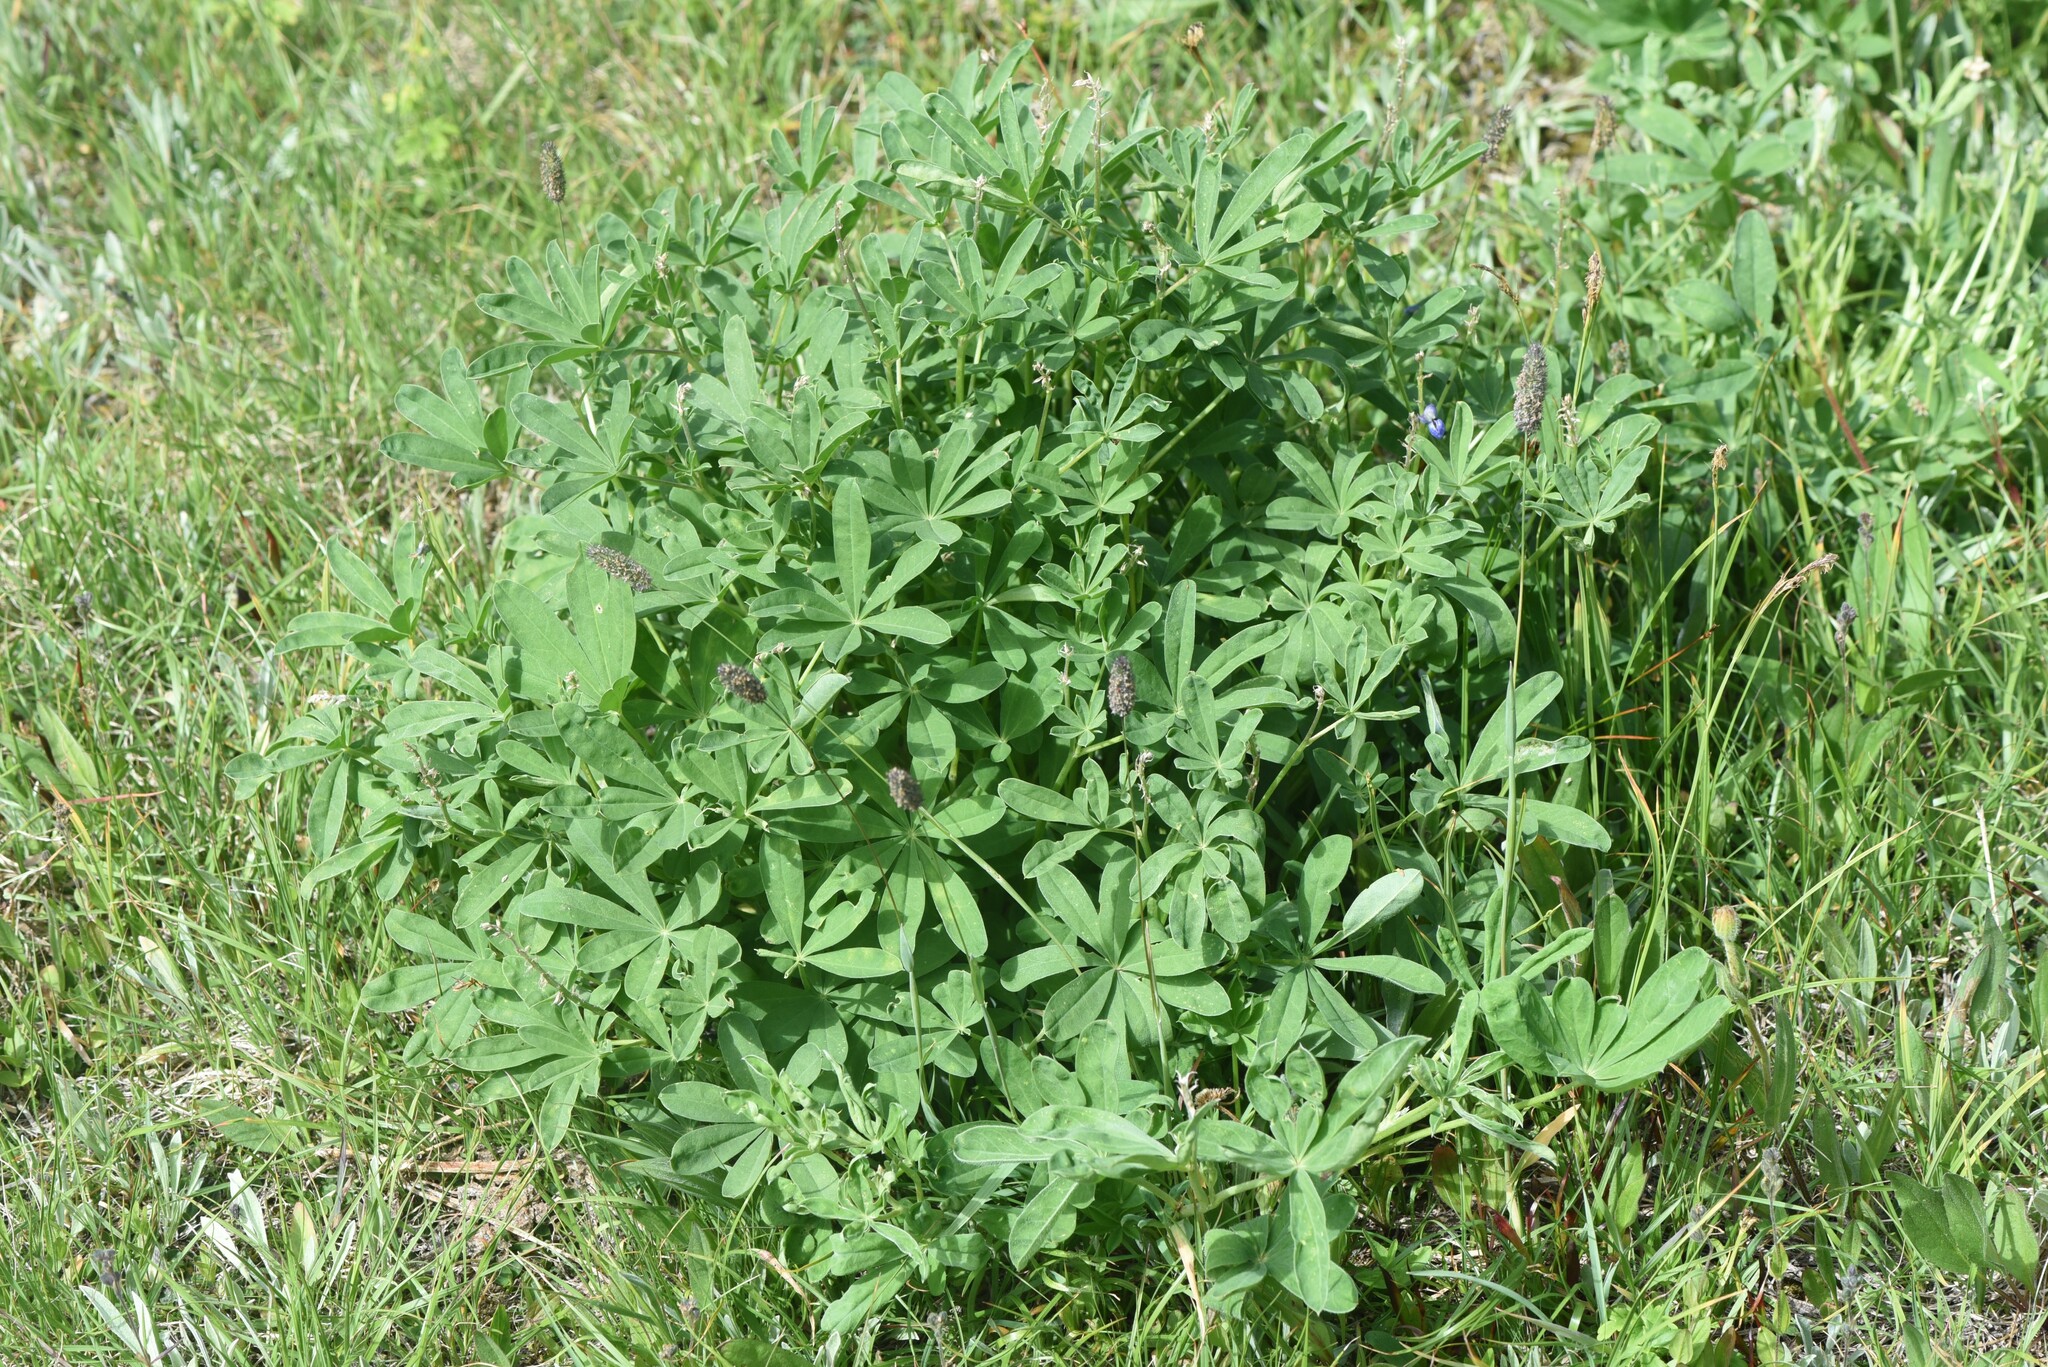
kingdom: Plantae
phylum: Tracheophyta
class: Magnoliopsida
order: Fabales
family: Fabaceae
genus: Lupinus
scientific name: Lupinus polyphyllus
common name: Garden lupin
